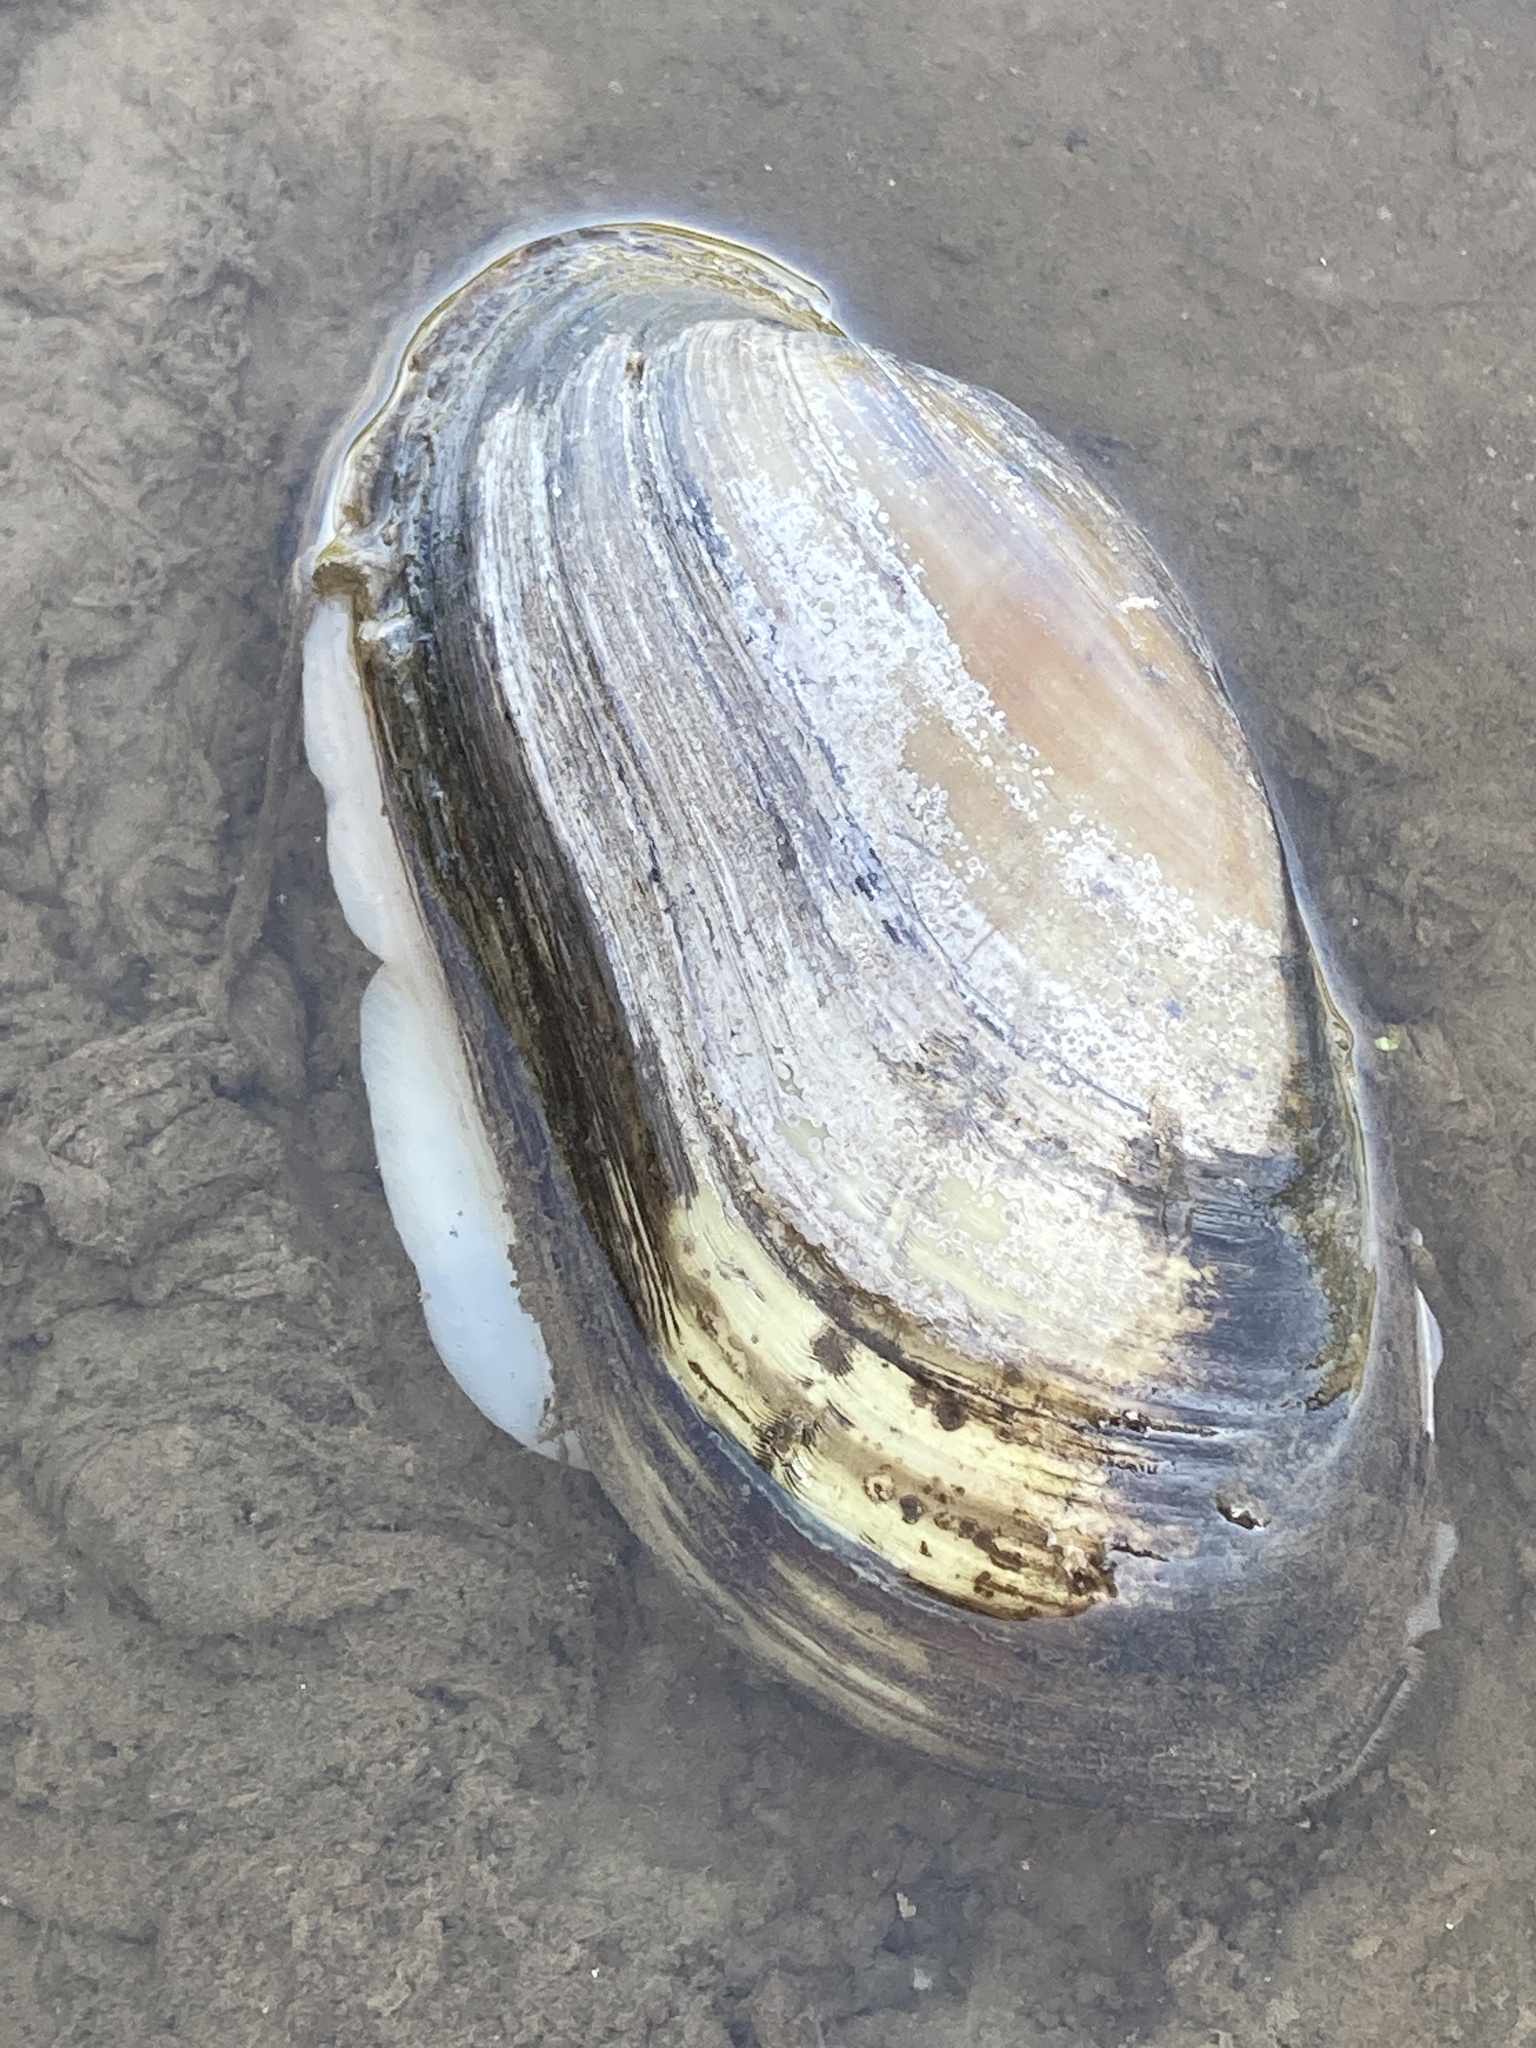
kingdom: Animalia
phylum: Mollusca
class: Bivalvia
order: Unionida
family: Unionidae
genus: Lampsilis
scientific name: Lampsilis teres
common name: Yellow sandshell
